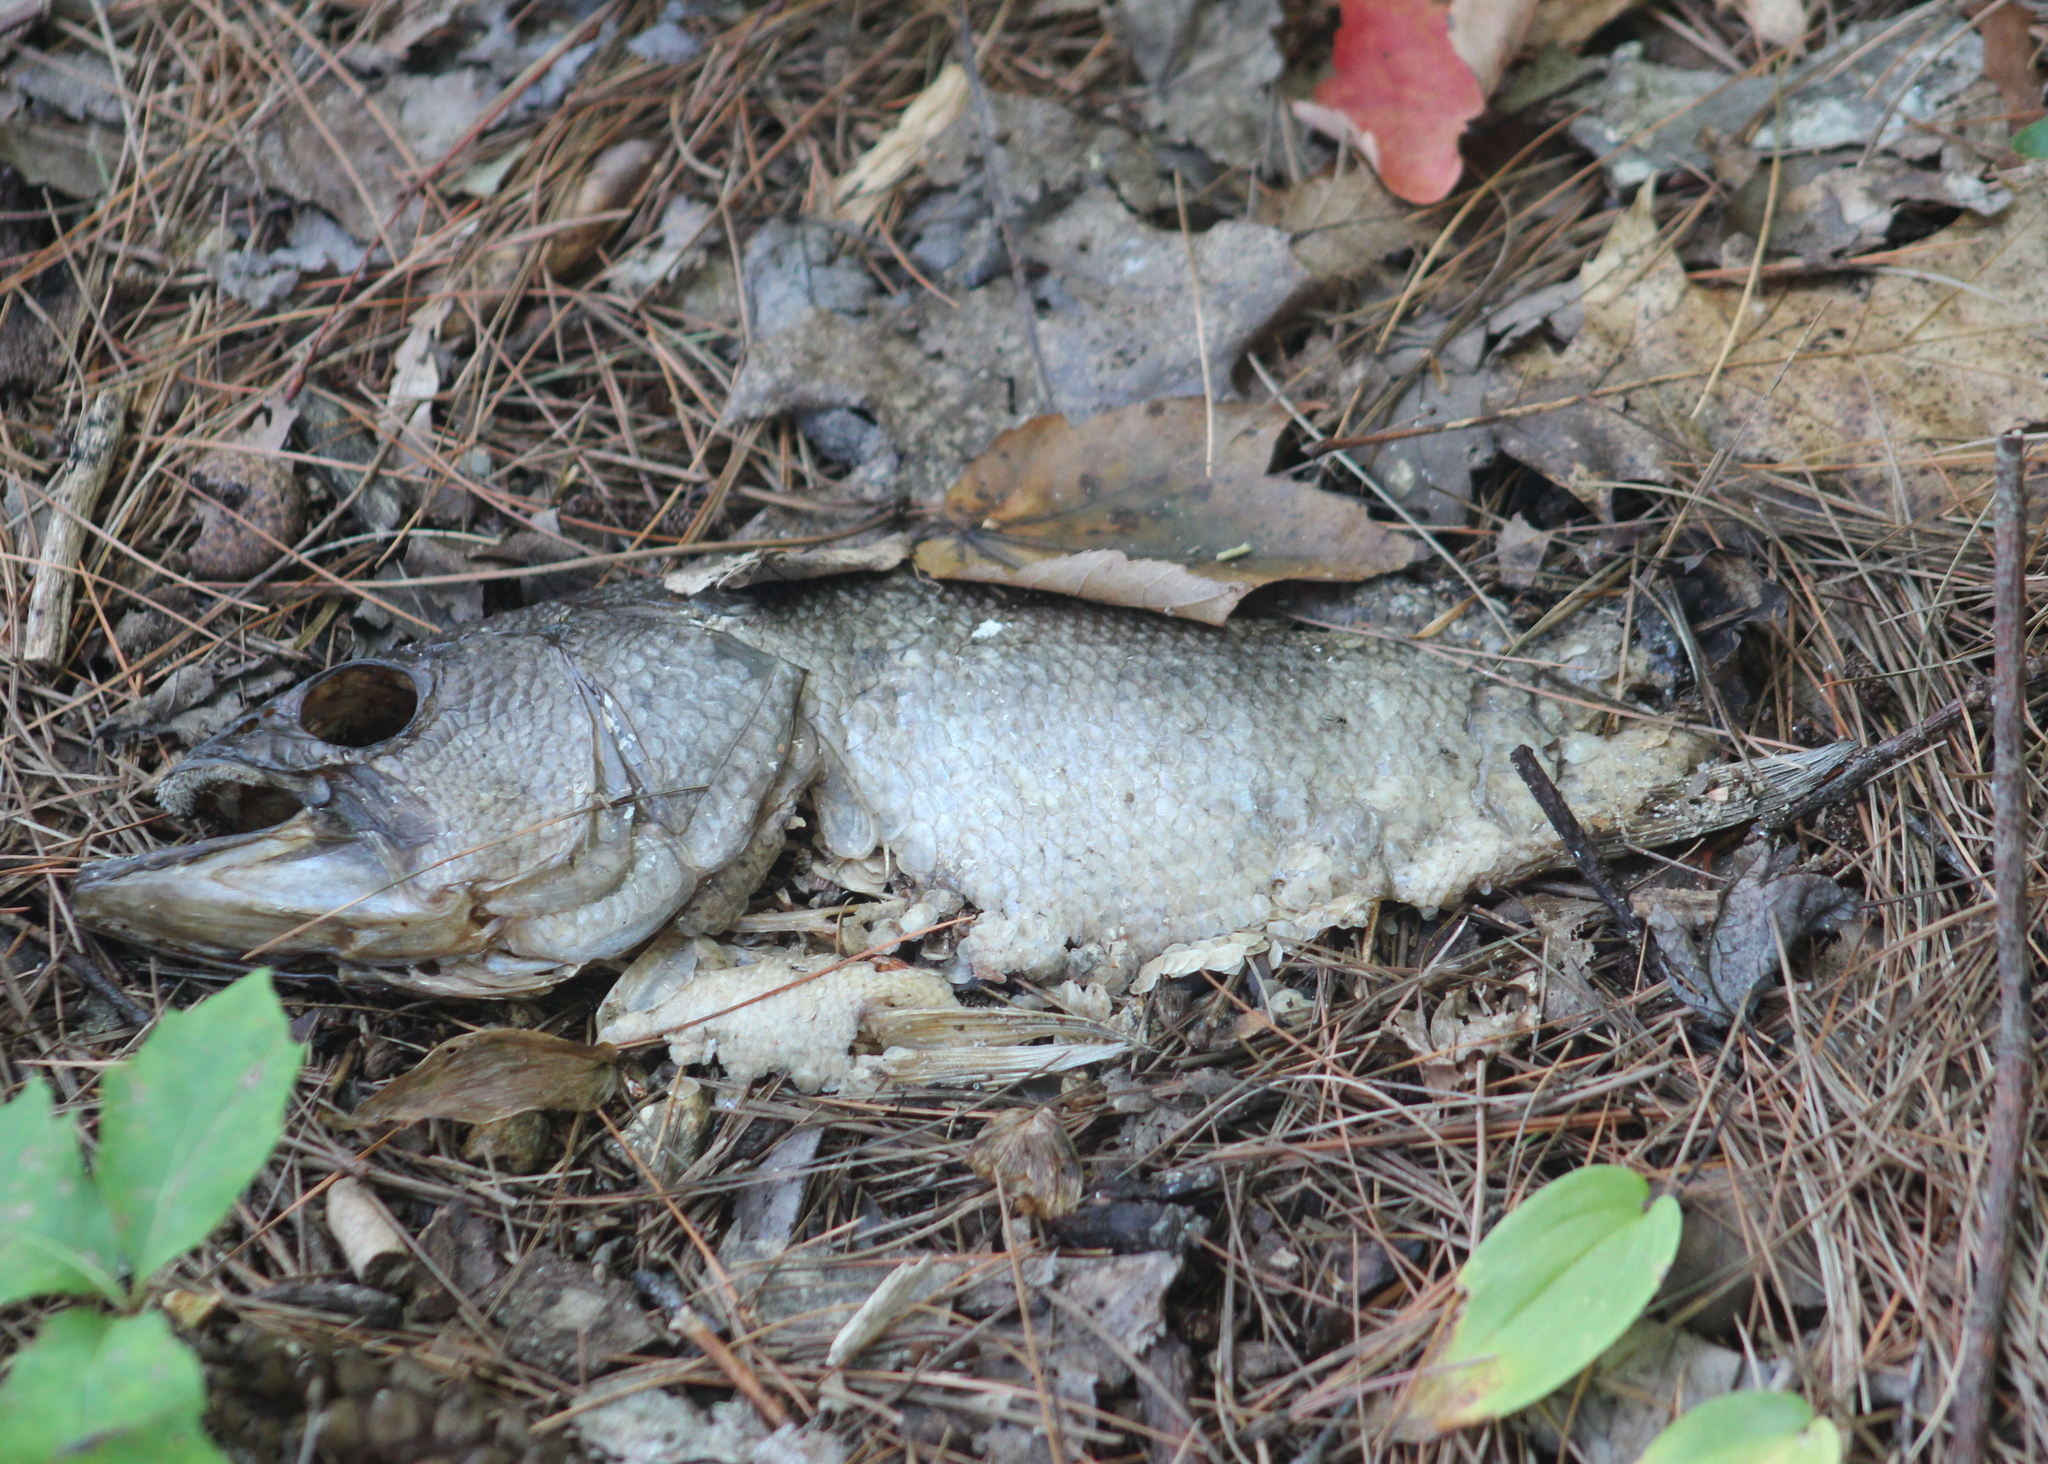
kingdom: Animalia
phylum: Chordata
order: Perciformes
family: Centrarchidae
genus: Micropterus
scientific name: Micropterus
